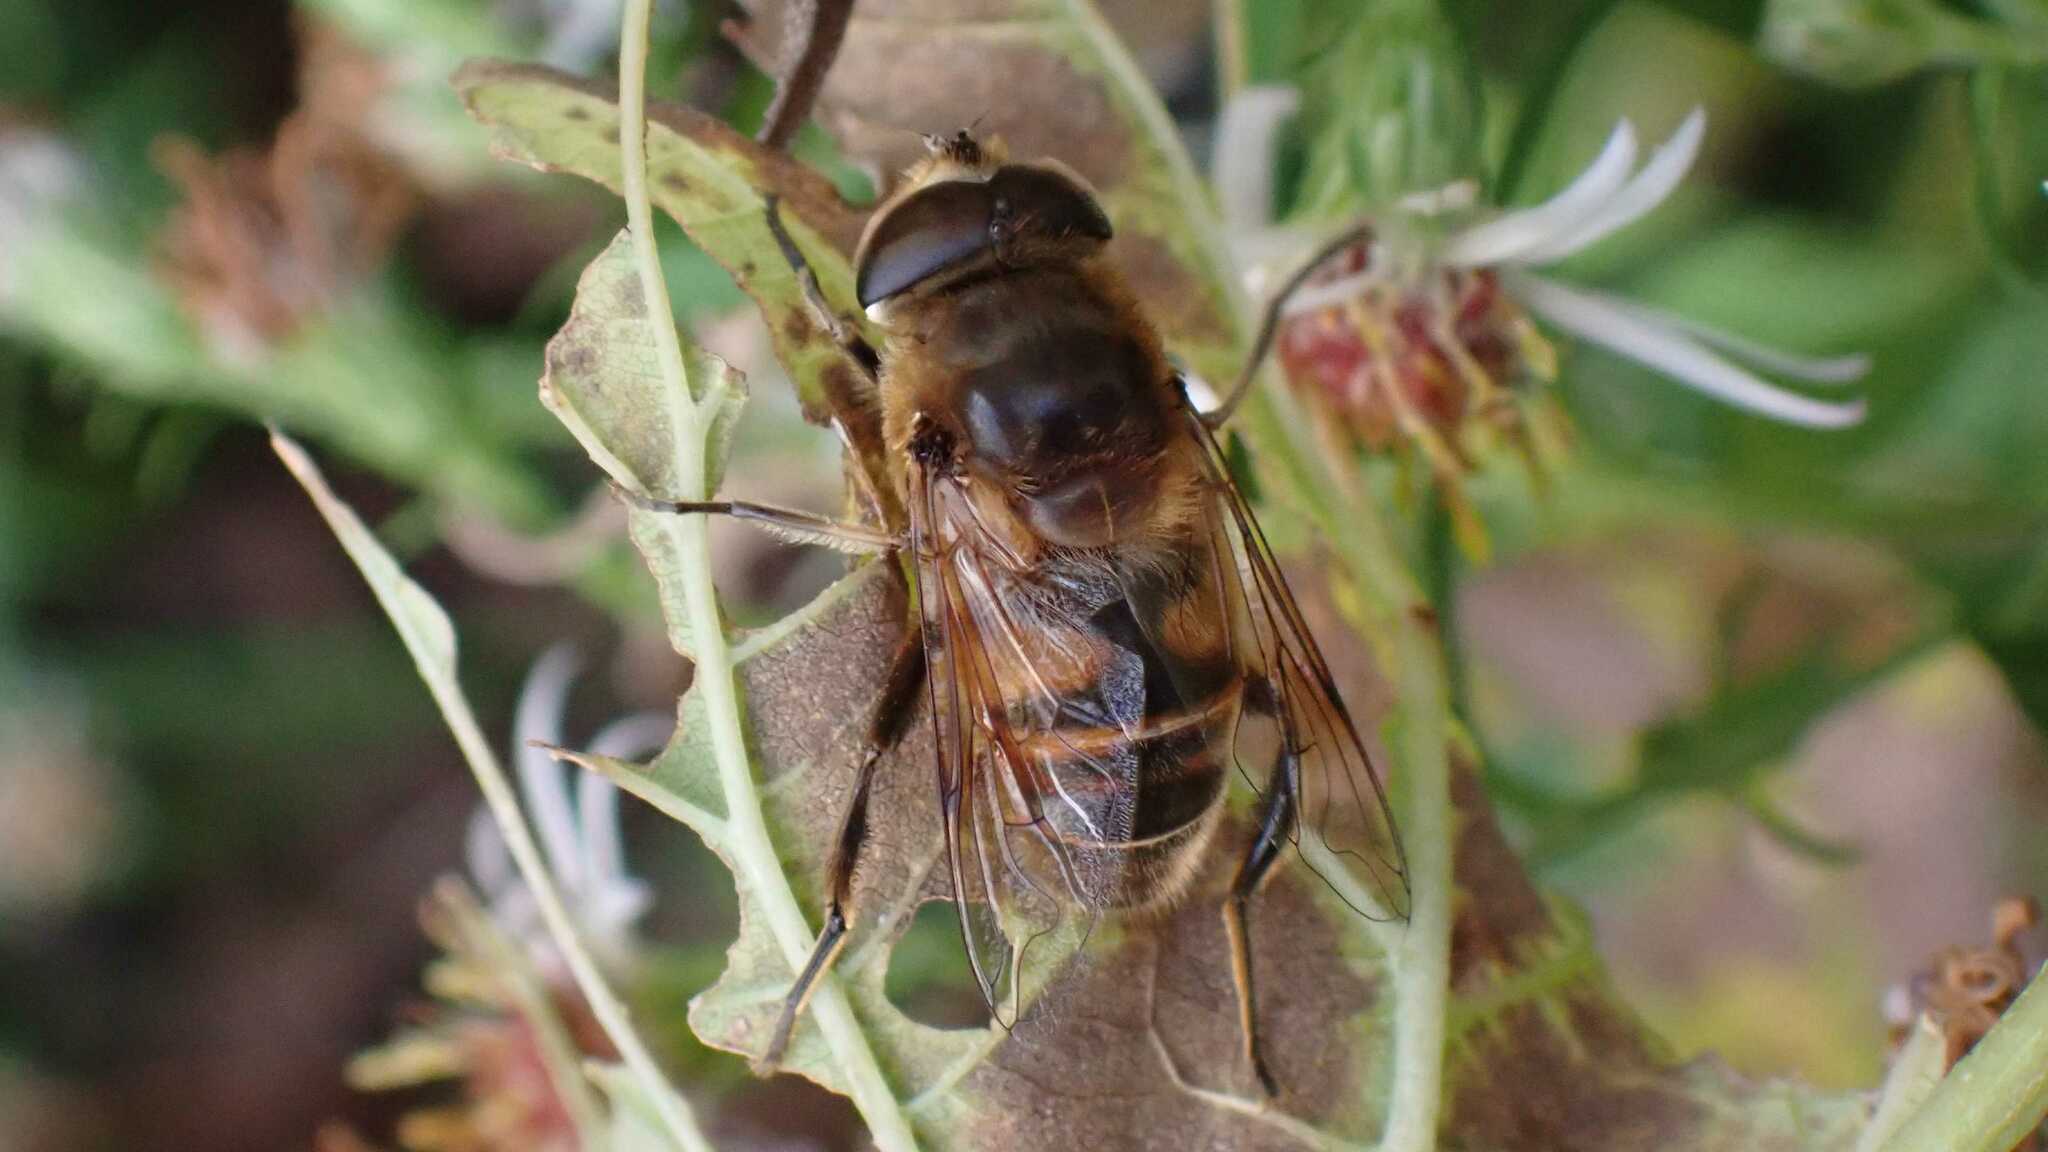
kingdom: Animalia
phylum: Arthropoda
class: Insecta
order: Diptera
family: Syrphidae
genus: Eristalis
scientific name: Eristalis tenax
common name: Drone fly
